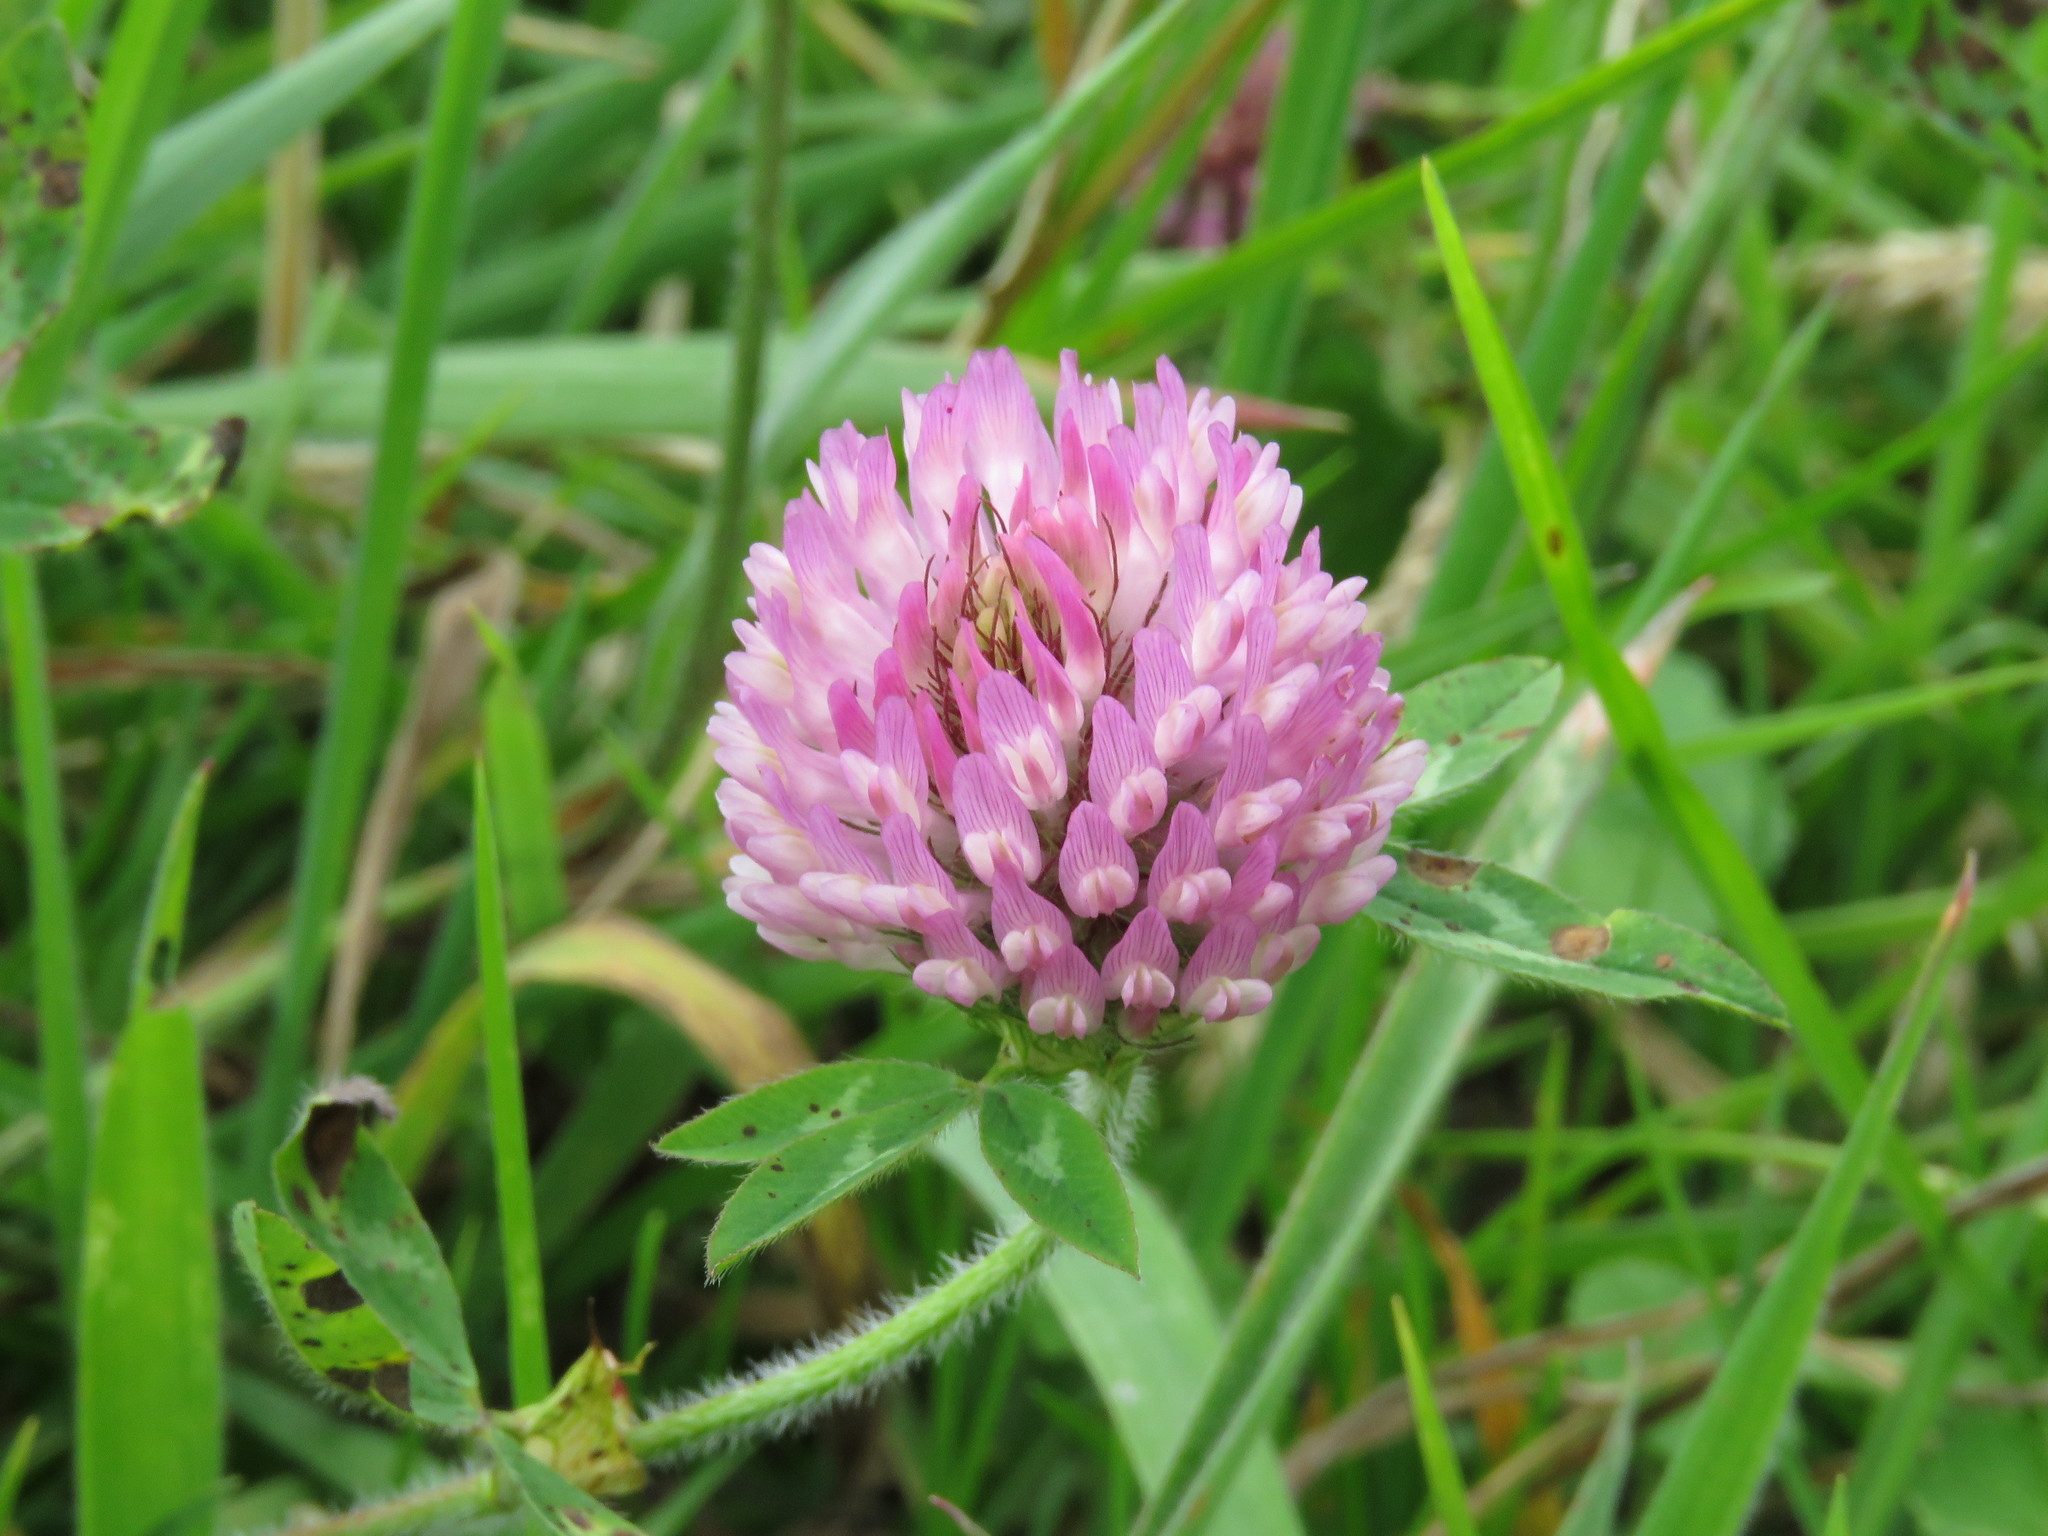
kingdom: Plantae
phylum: Tracheophyta
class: Magnoliopsida
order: Fabales
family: Fabaceae
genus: Trifolium
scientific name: Trifolium pratense
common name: Red clover
